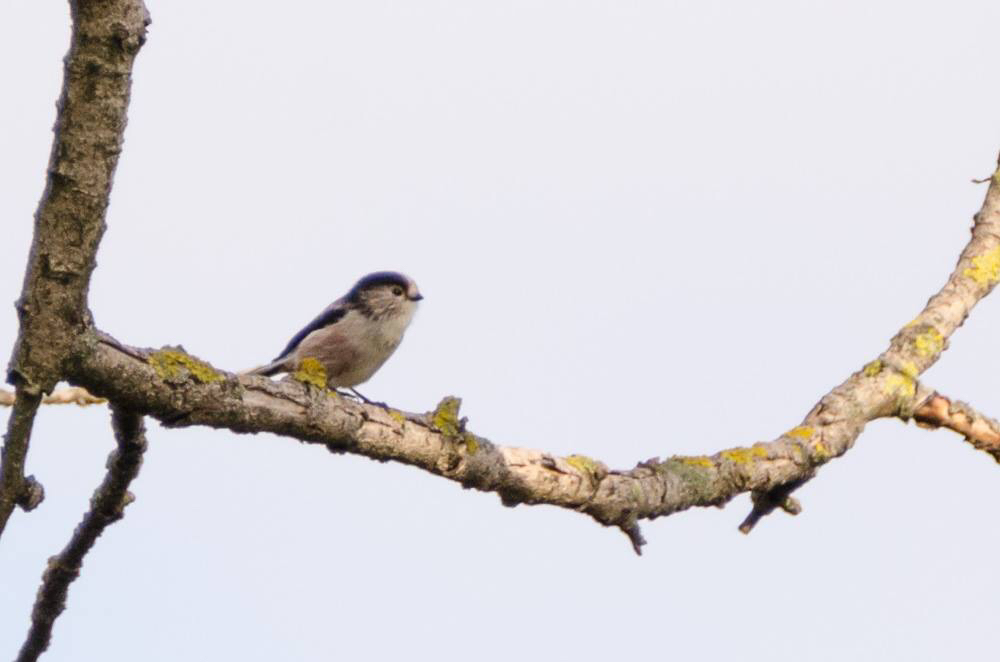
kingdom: Animalia
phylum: Chordata
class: Aves
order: Passeriformes
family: Aegithalidae
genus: Aegithalos
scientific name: Aegithalos caudatus
